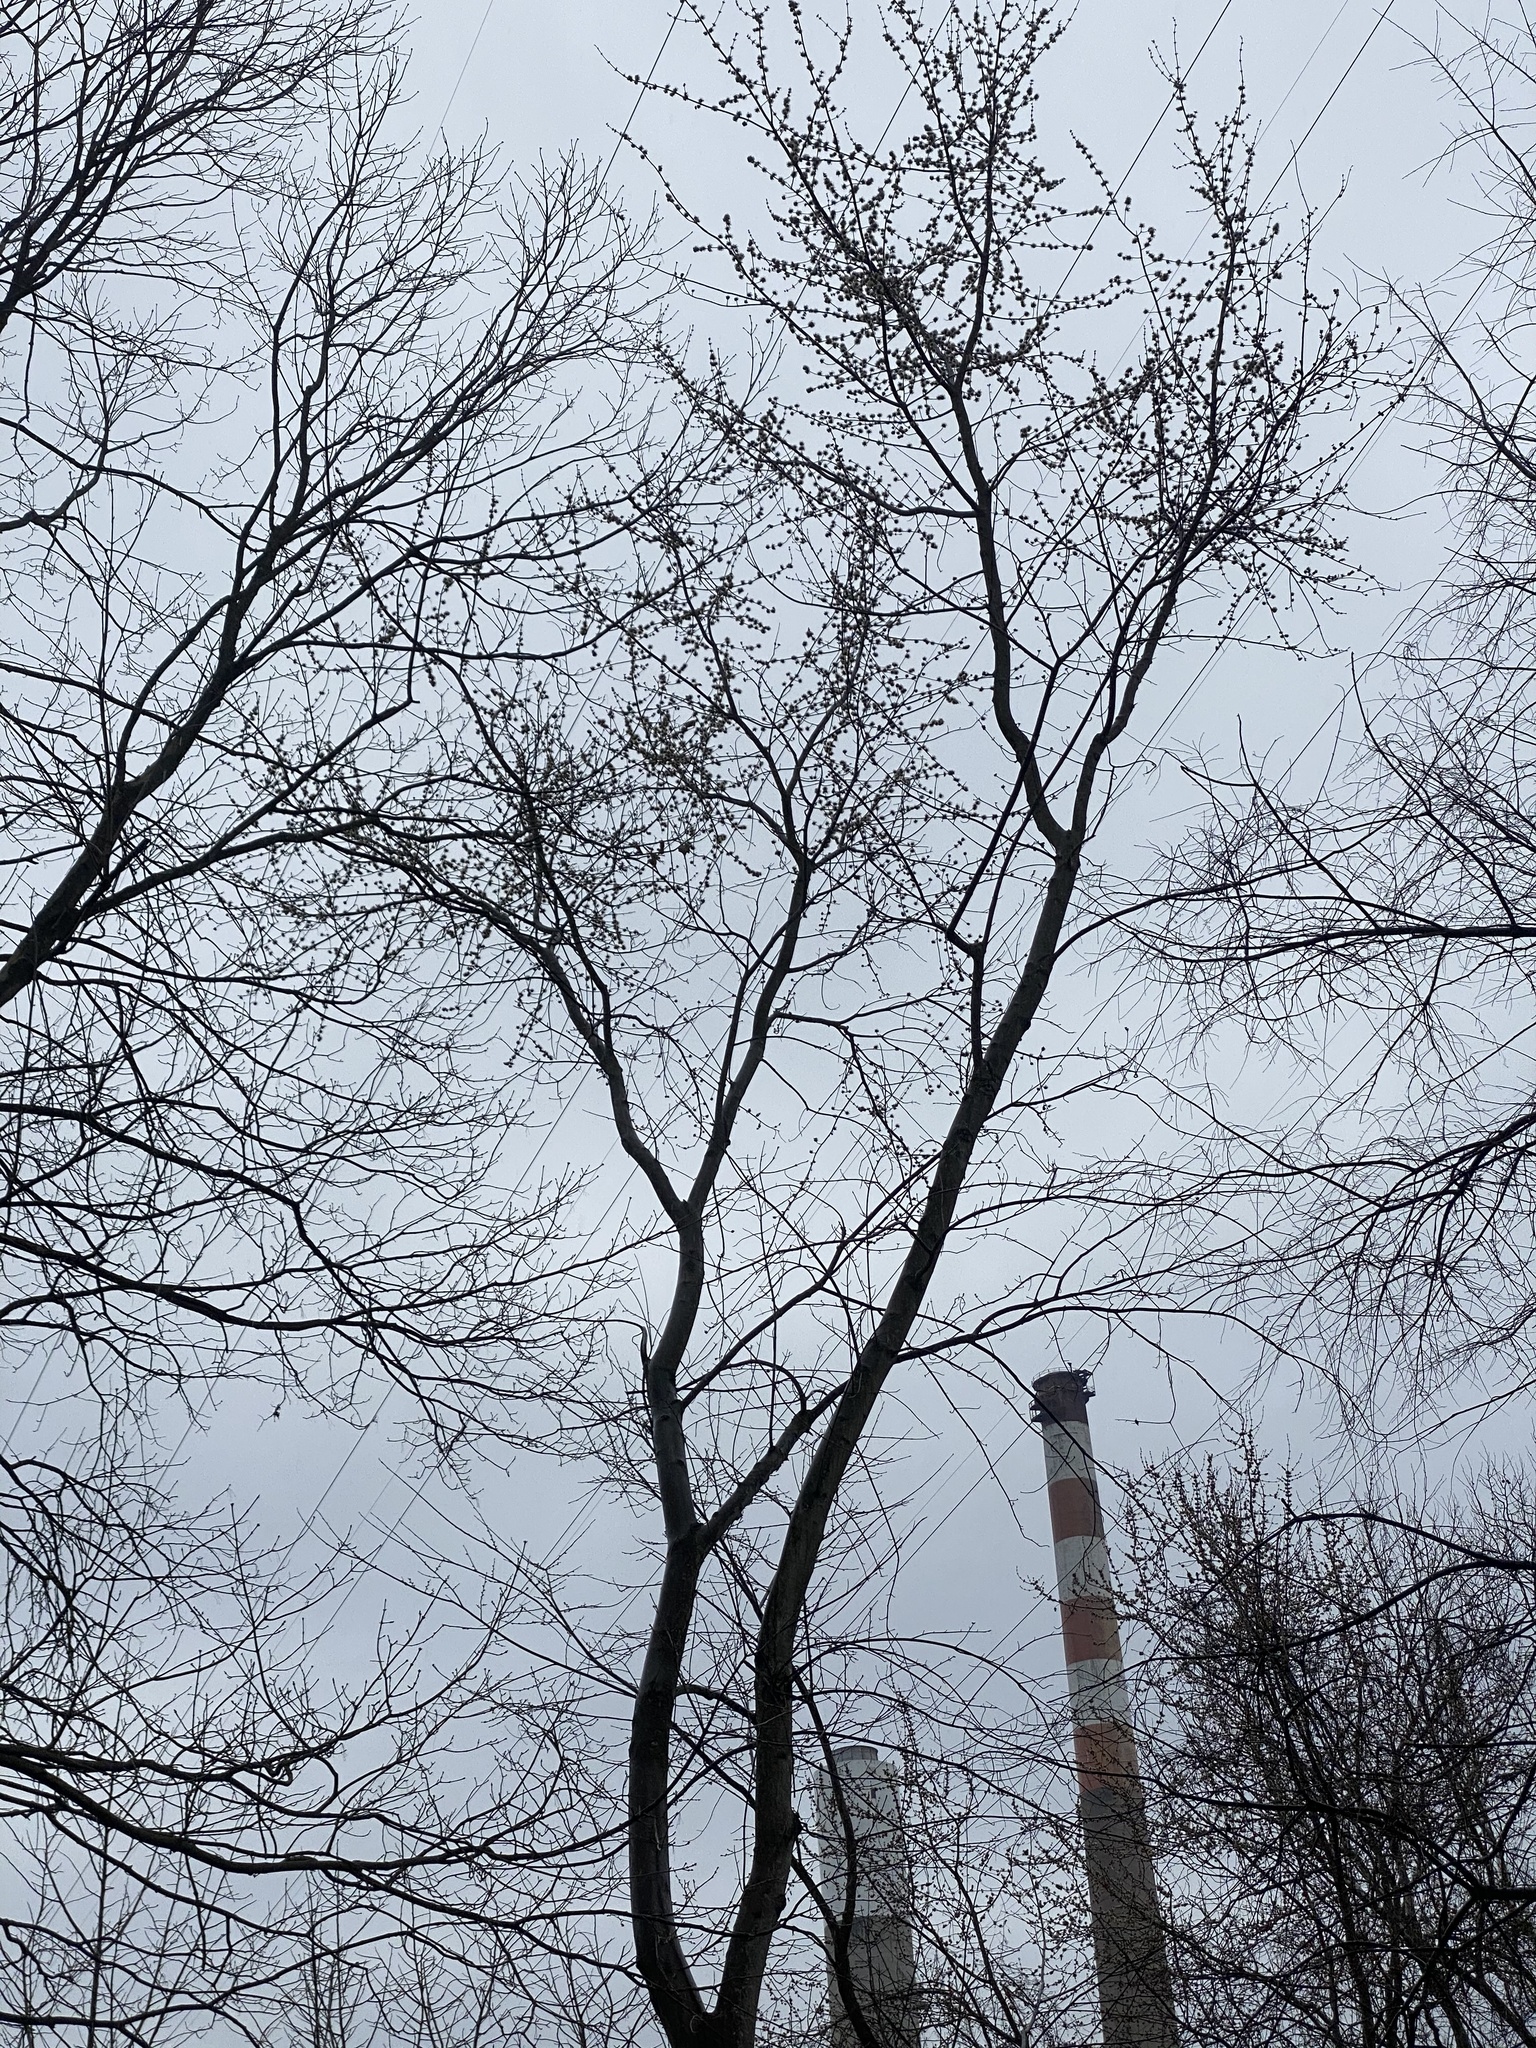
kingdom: Plantae
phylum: Tracheophyta
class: Magnoliopsida
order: Sapindales
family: Sapindaceae
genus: Acer
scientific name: Acer saccharinum
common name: Silver maple
